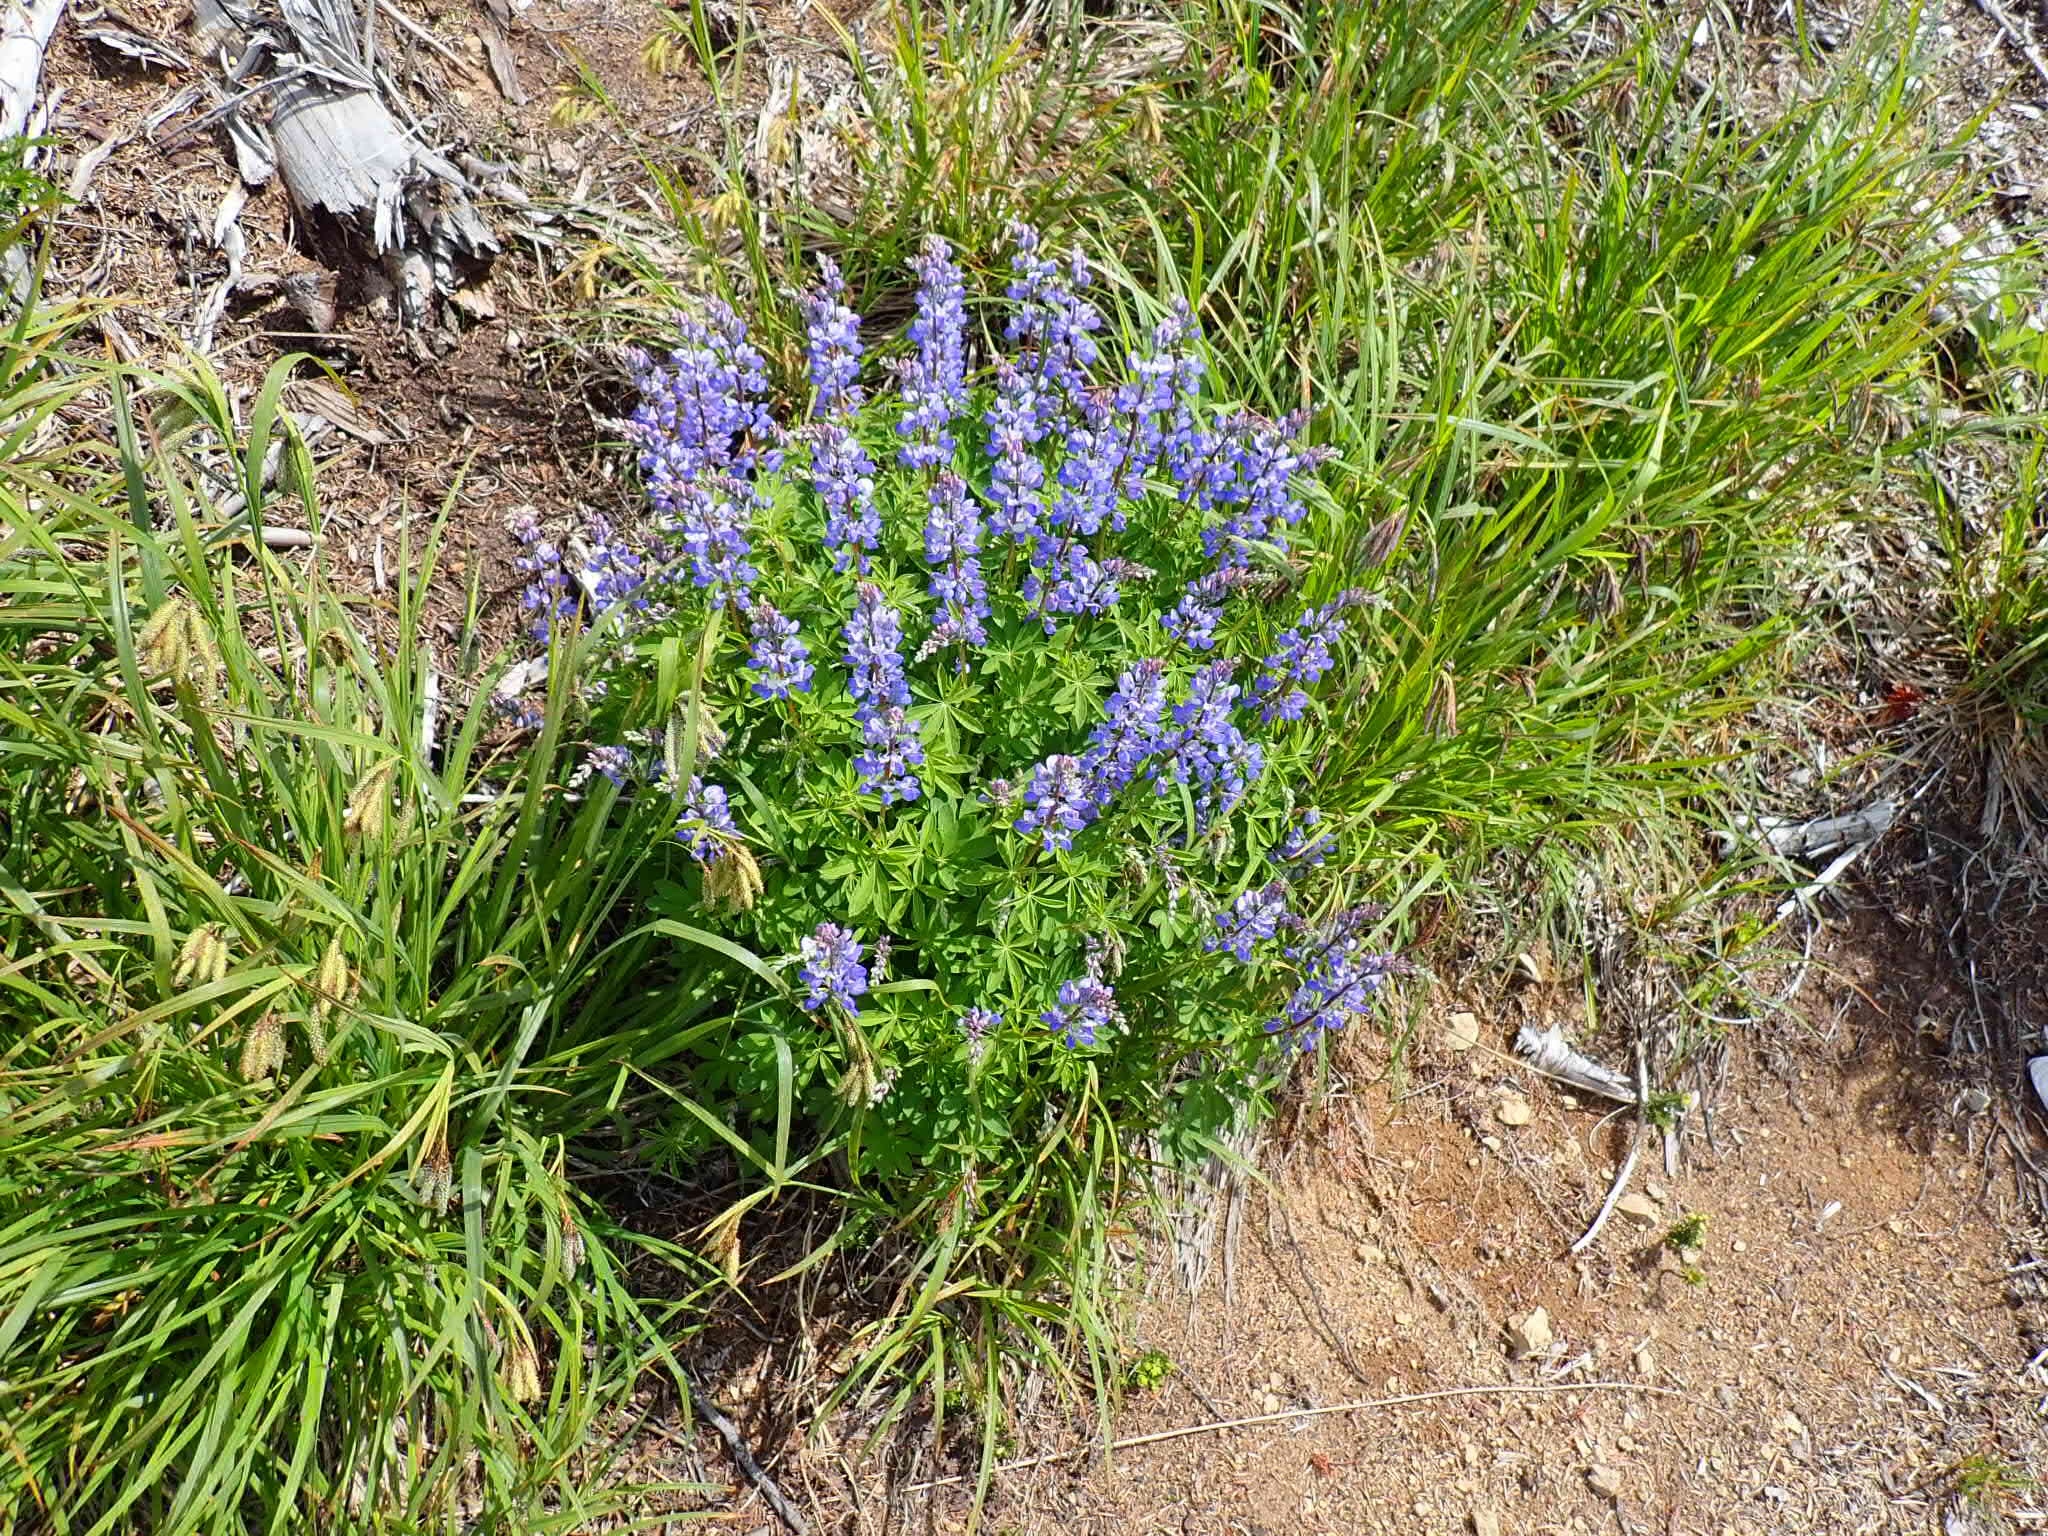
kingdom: Plantae
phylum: Tracheophyta
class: Magnoliopsida
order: Fabales
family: Fabaceae
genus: Lupinus
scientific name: Lupinus latifolius
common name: Broad-leaved lupine
